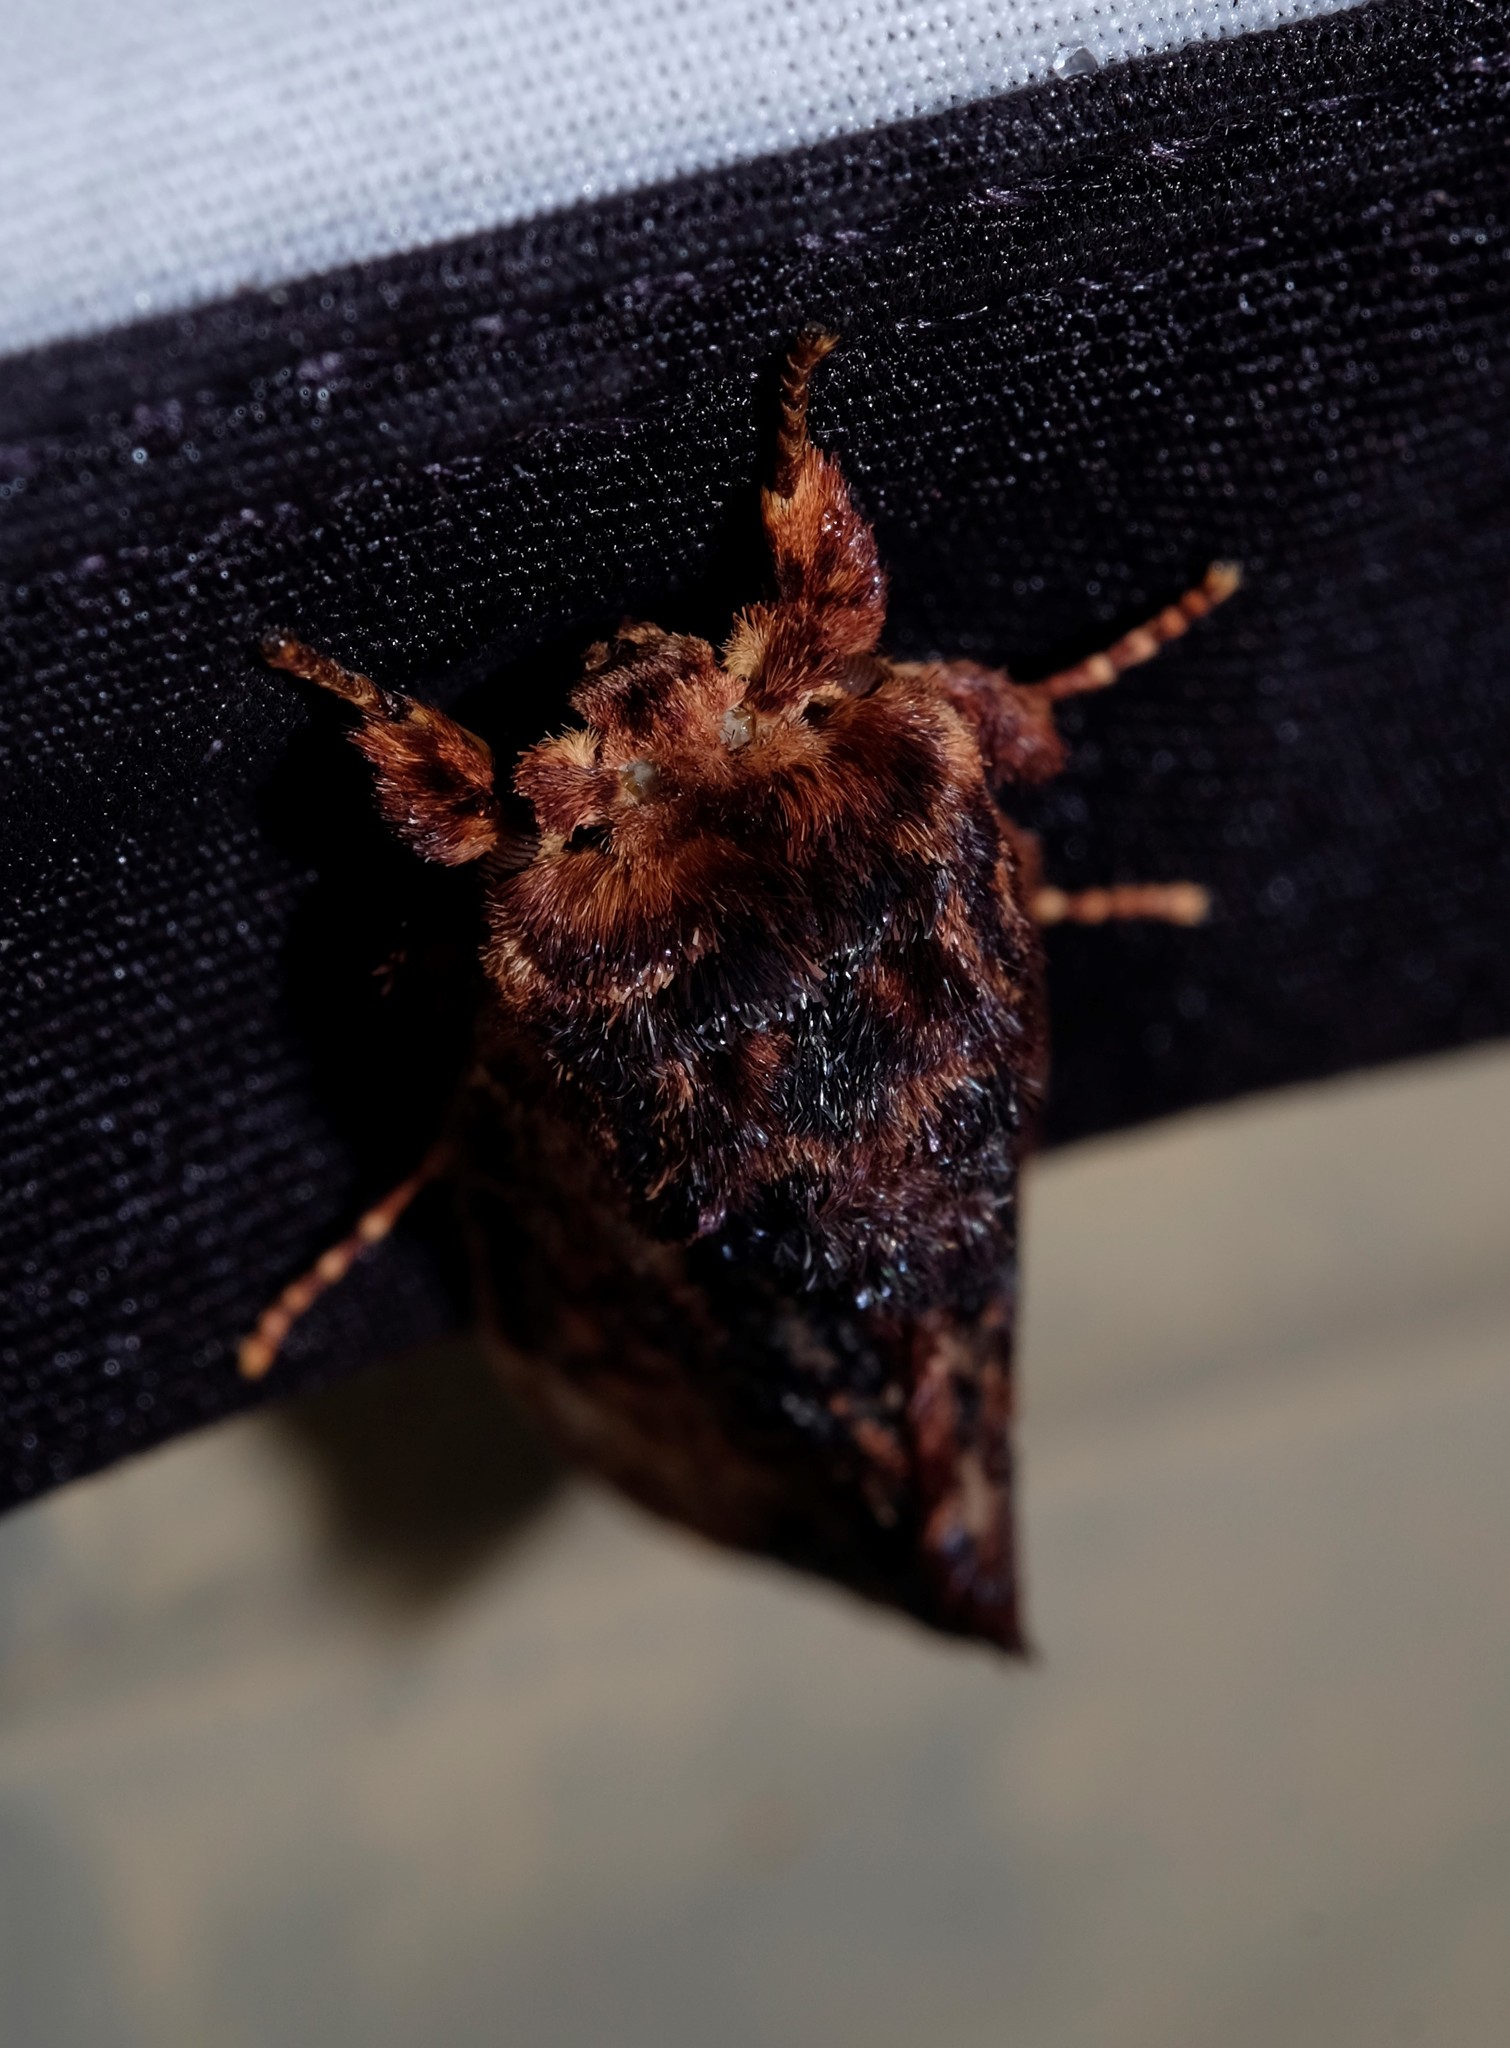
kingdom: Animalia
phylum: Arthropoda
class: Insecta
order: Lepidoptera
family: Notodontidae
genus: Sorama
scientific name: Sorama bicolor
